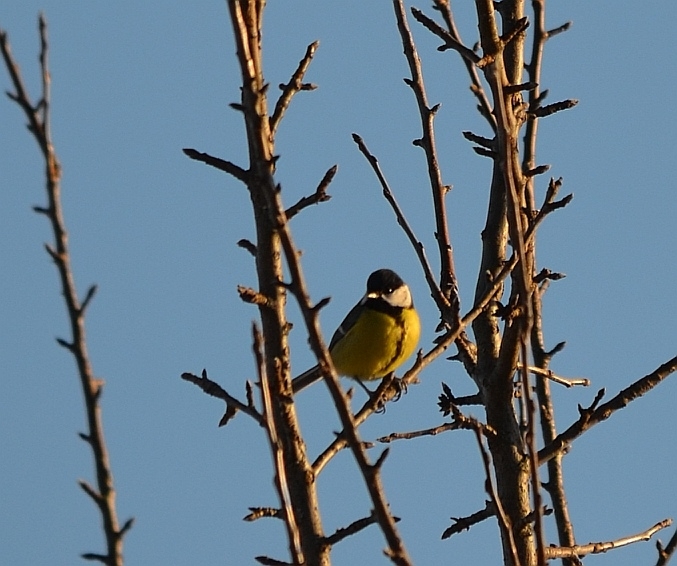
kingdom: Animalia
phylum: Chordata
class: Aves
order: Passeriformes
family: Paridae
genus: Parus
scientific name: Parus major
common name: Great tit
